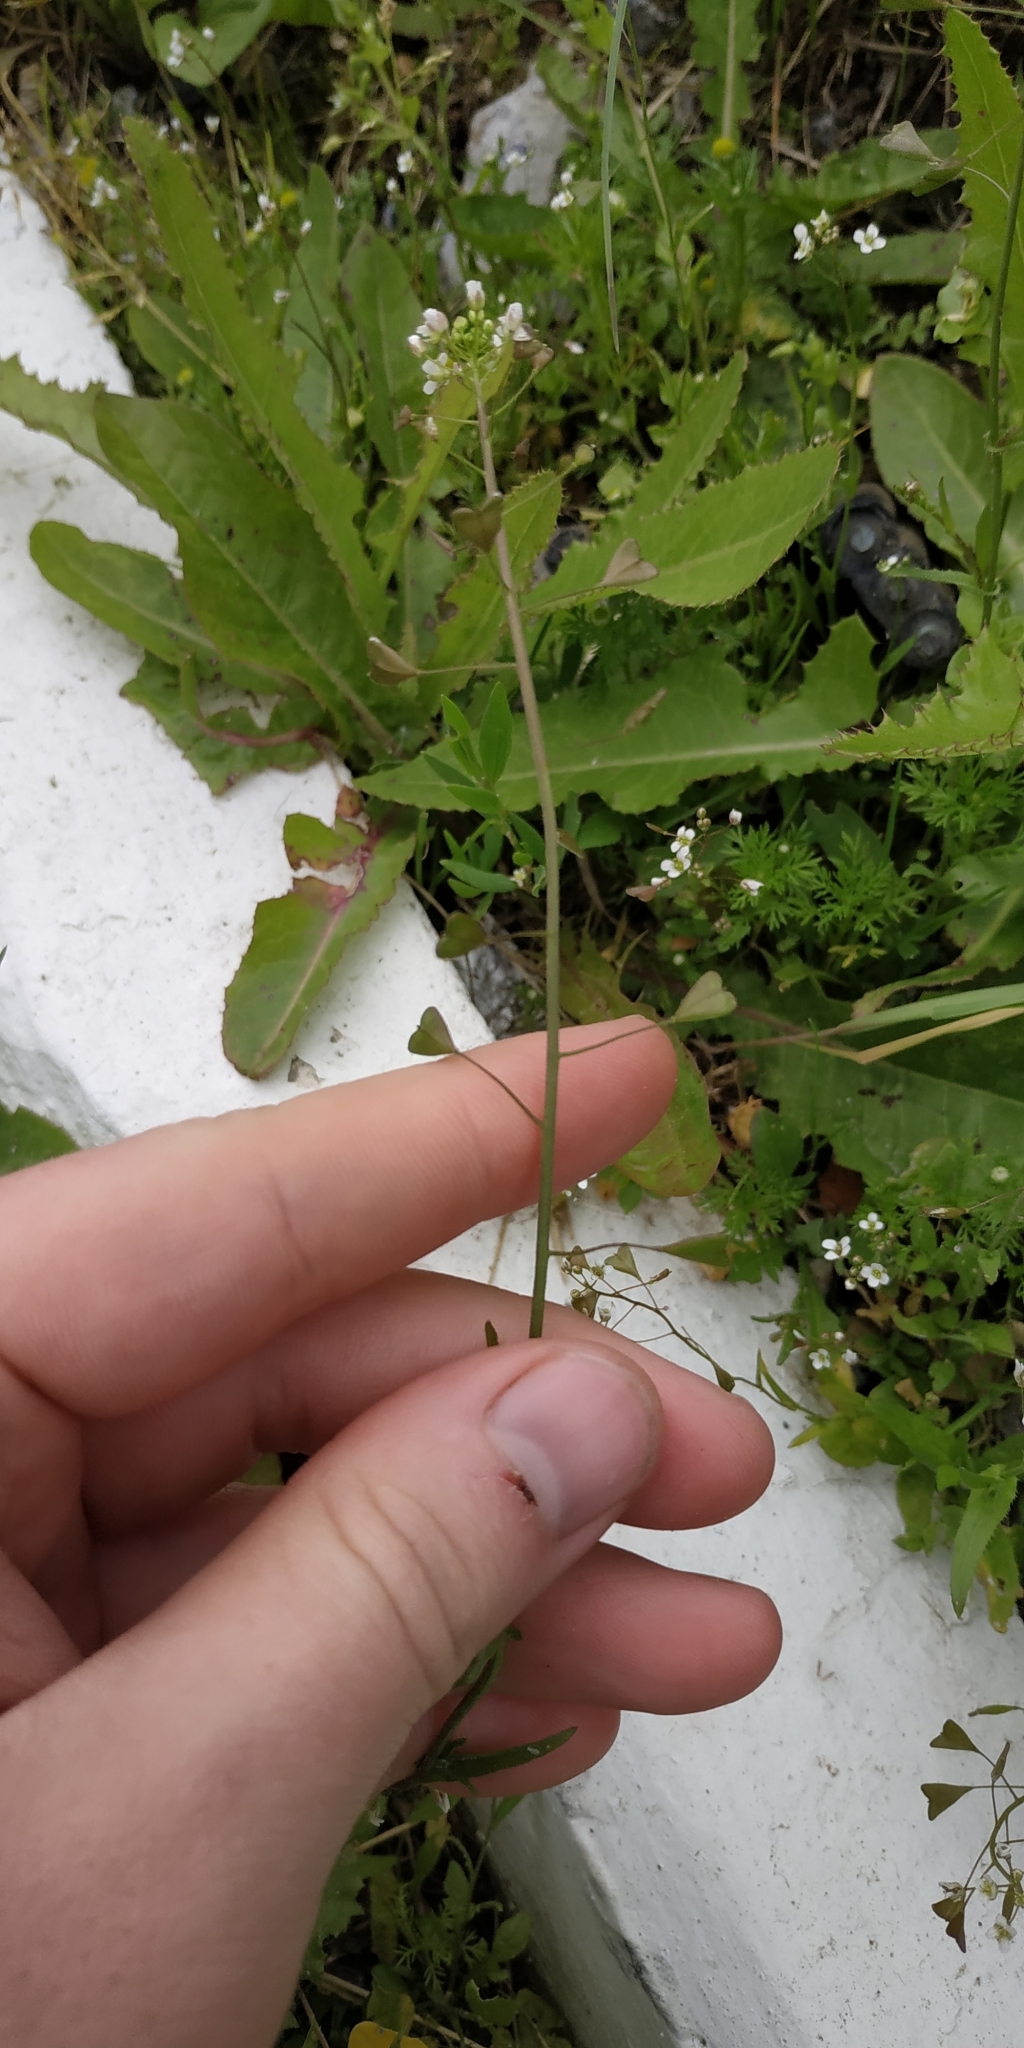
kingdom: Plantae
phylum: Tracheophyta
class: Magnoliopsida
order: Brassicales
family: Brassicaceae
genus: Capsella
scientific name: Capsella bursa-pastoris
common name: Shepherd's purse
